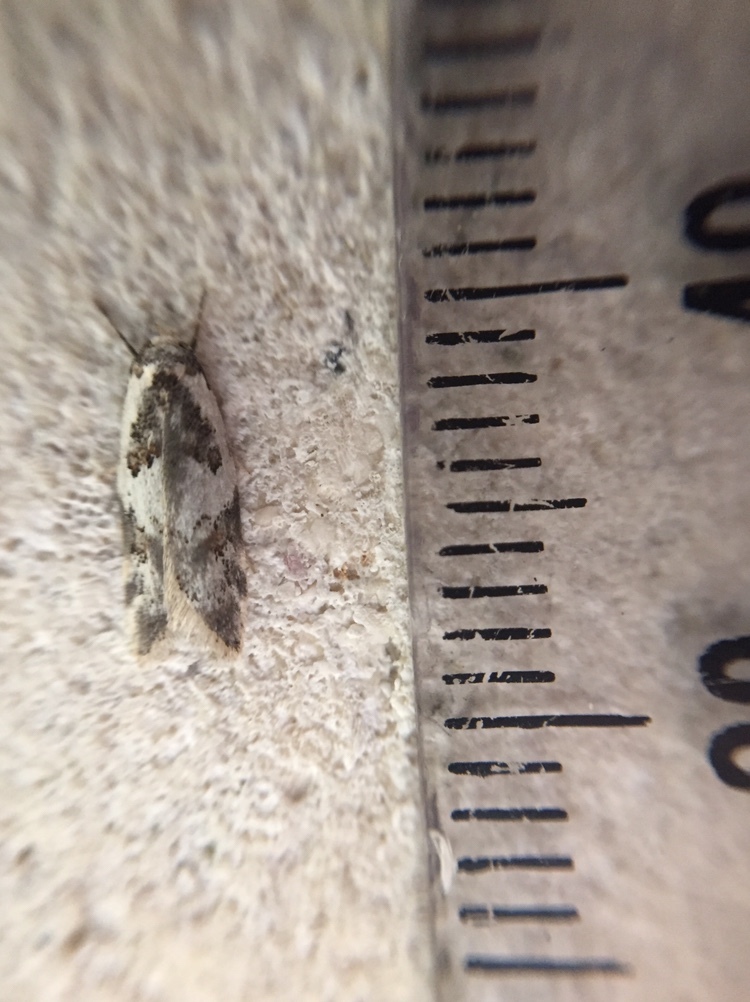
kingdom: Animalia
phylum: Arthropoda
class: Insecta
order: Lepidoptera
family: Oecophoridae
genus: Trachypepla
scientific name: Trachypepla galaxias
